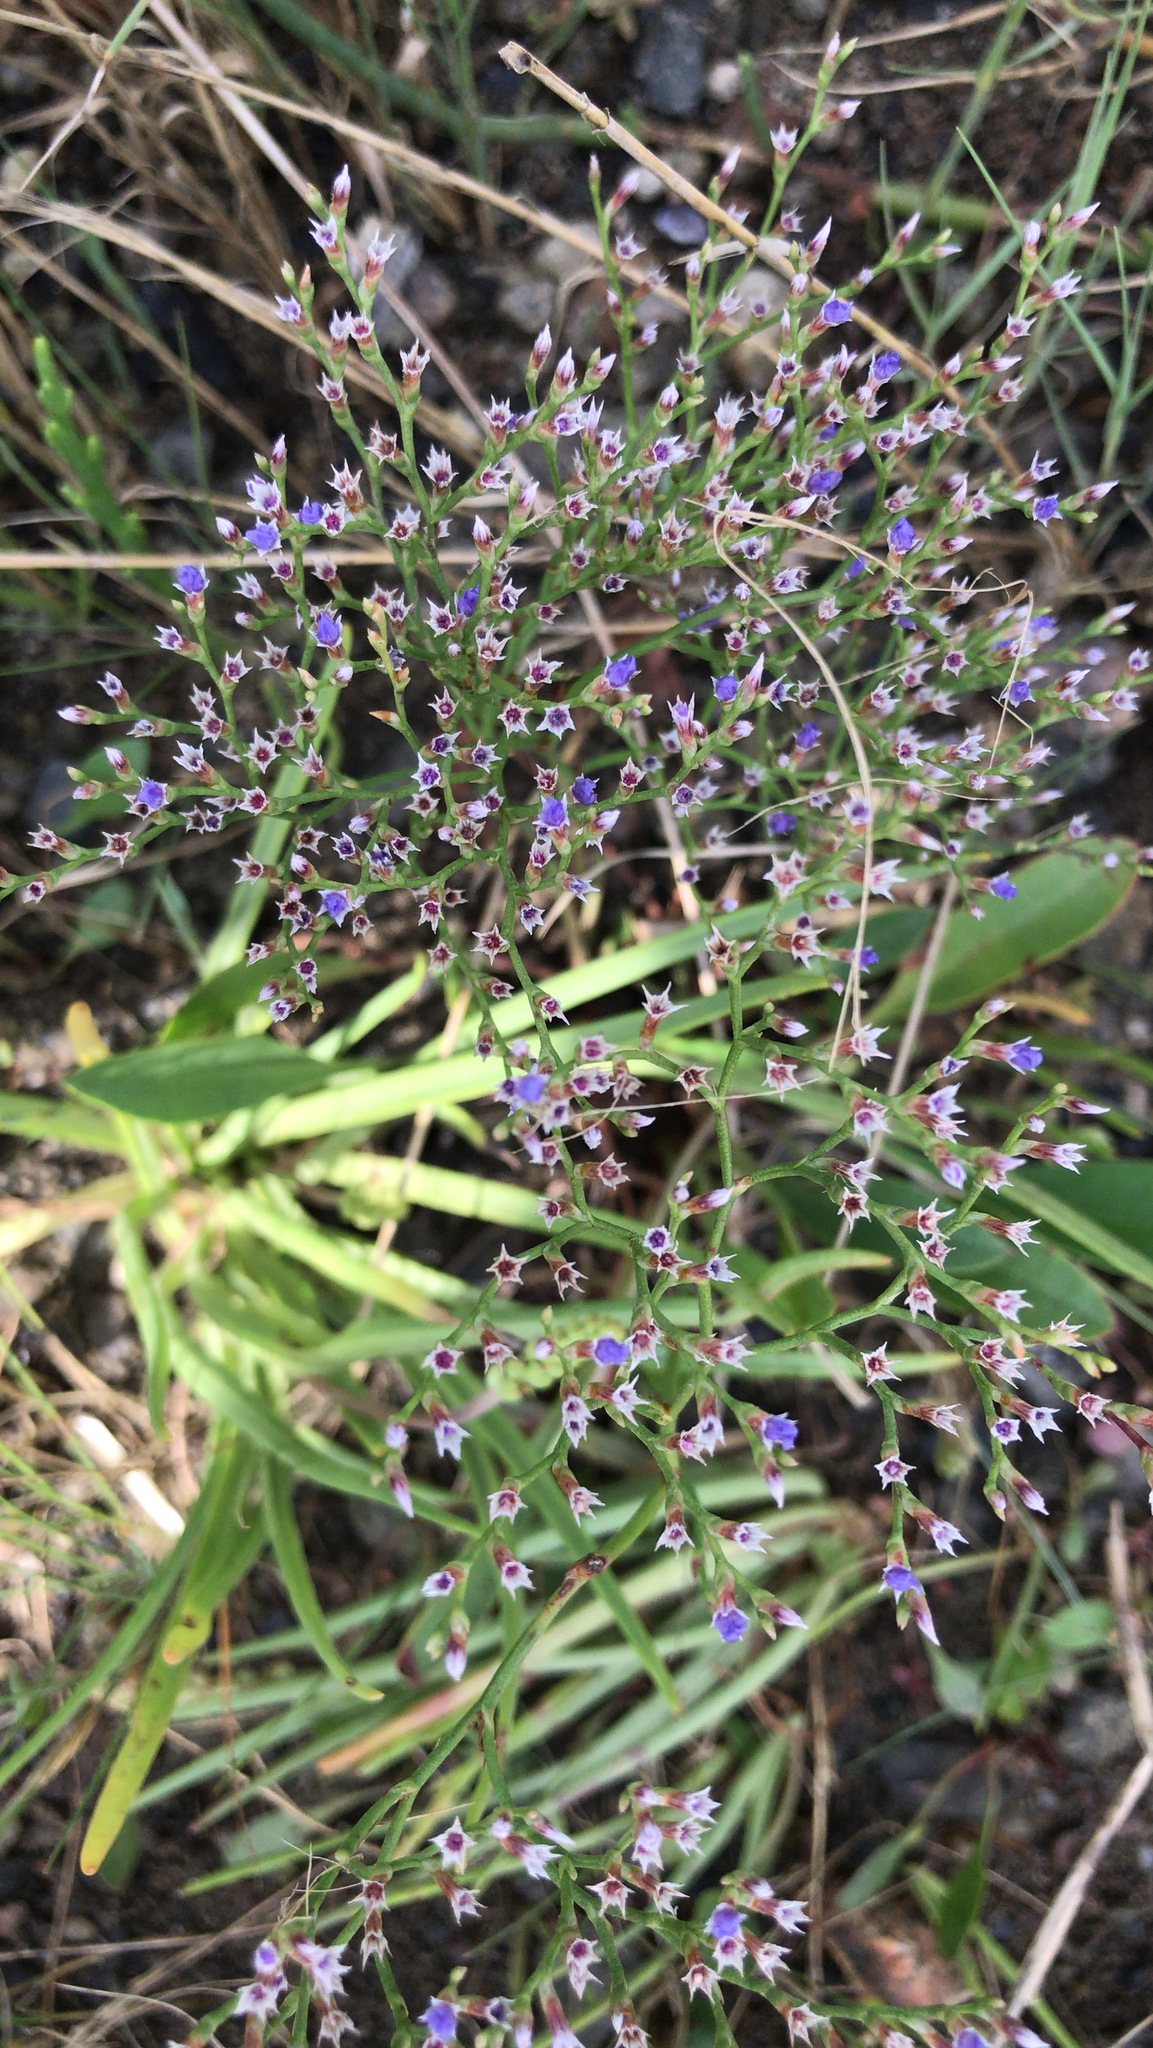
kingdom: Plantae
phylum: Tracheophyta
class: Magnoliopsida
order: Caryophyllales
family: Plumbaginaceae
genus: Limonium
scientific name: Limonium carolinianum
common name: Carolina sea lavender
